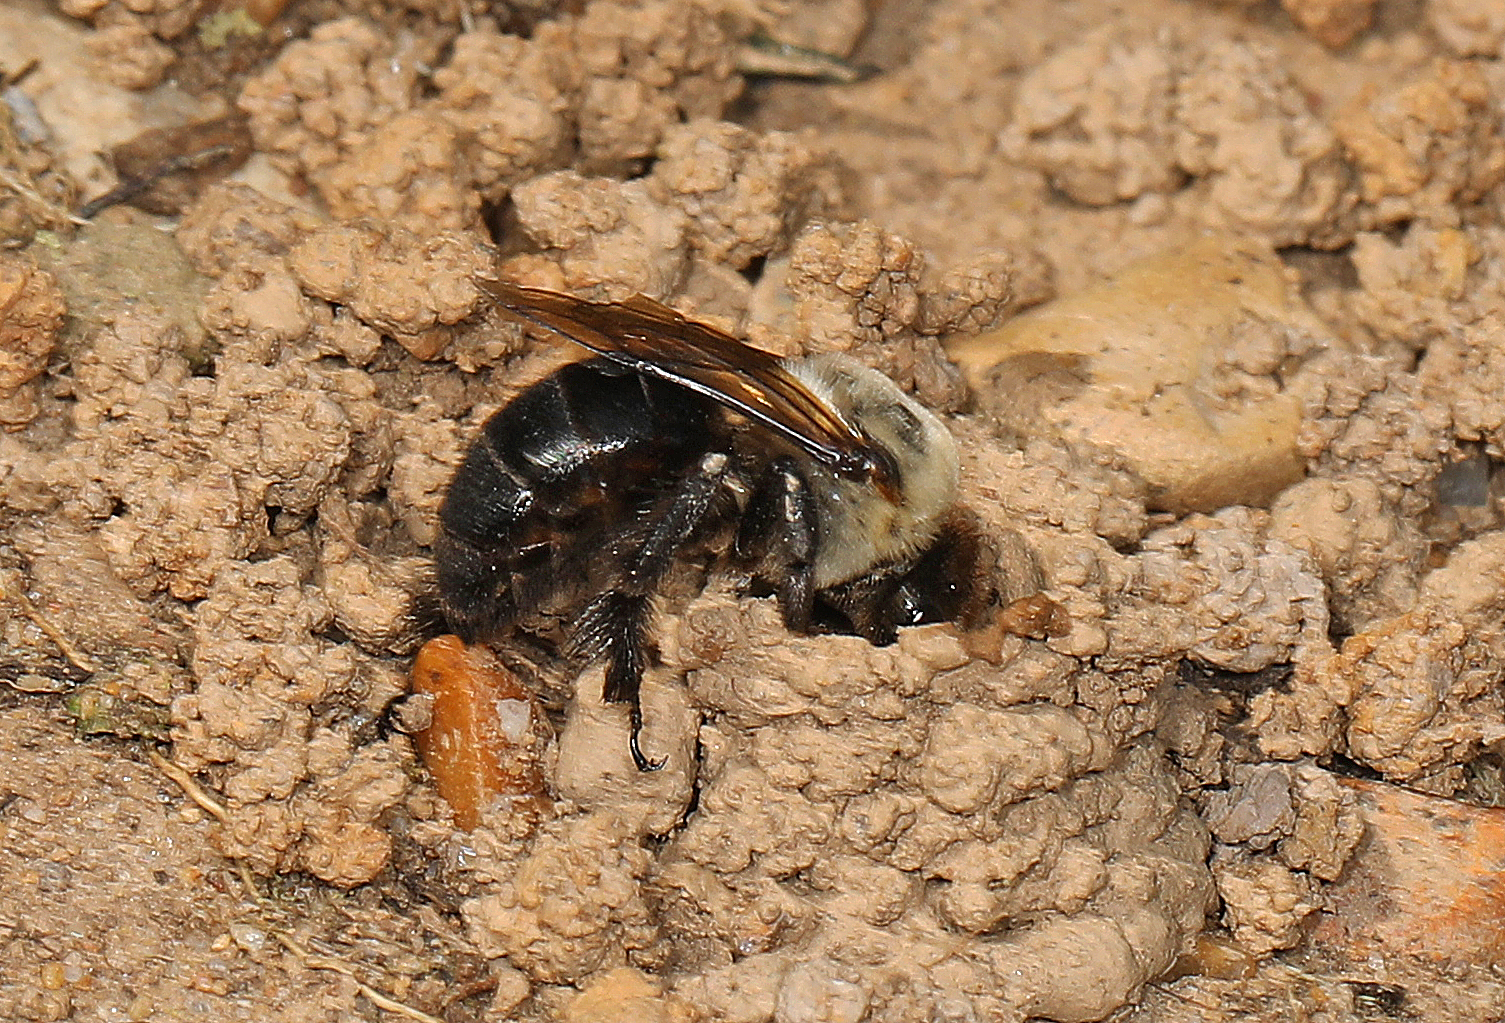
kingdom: Animalia
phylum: Arthropoda
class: Insecta
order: Hymenoptera
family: Apidae
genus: Ptilothrix
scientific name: Ptilothrix bombiformis
